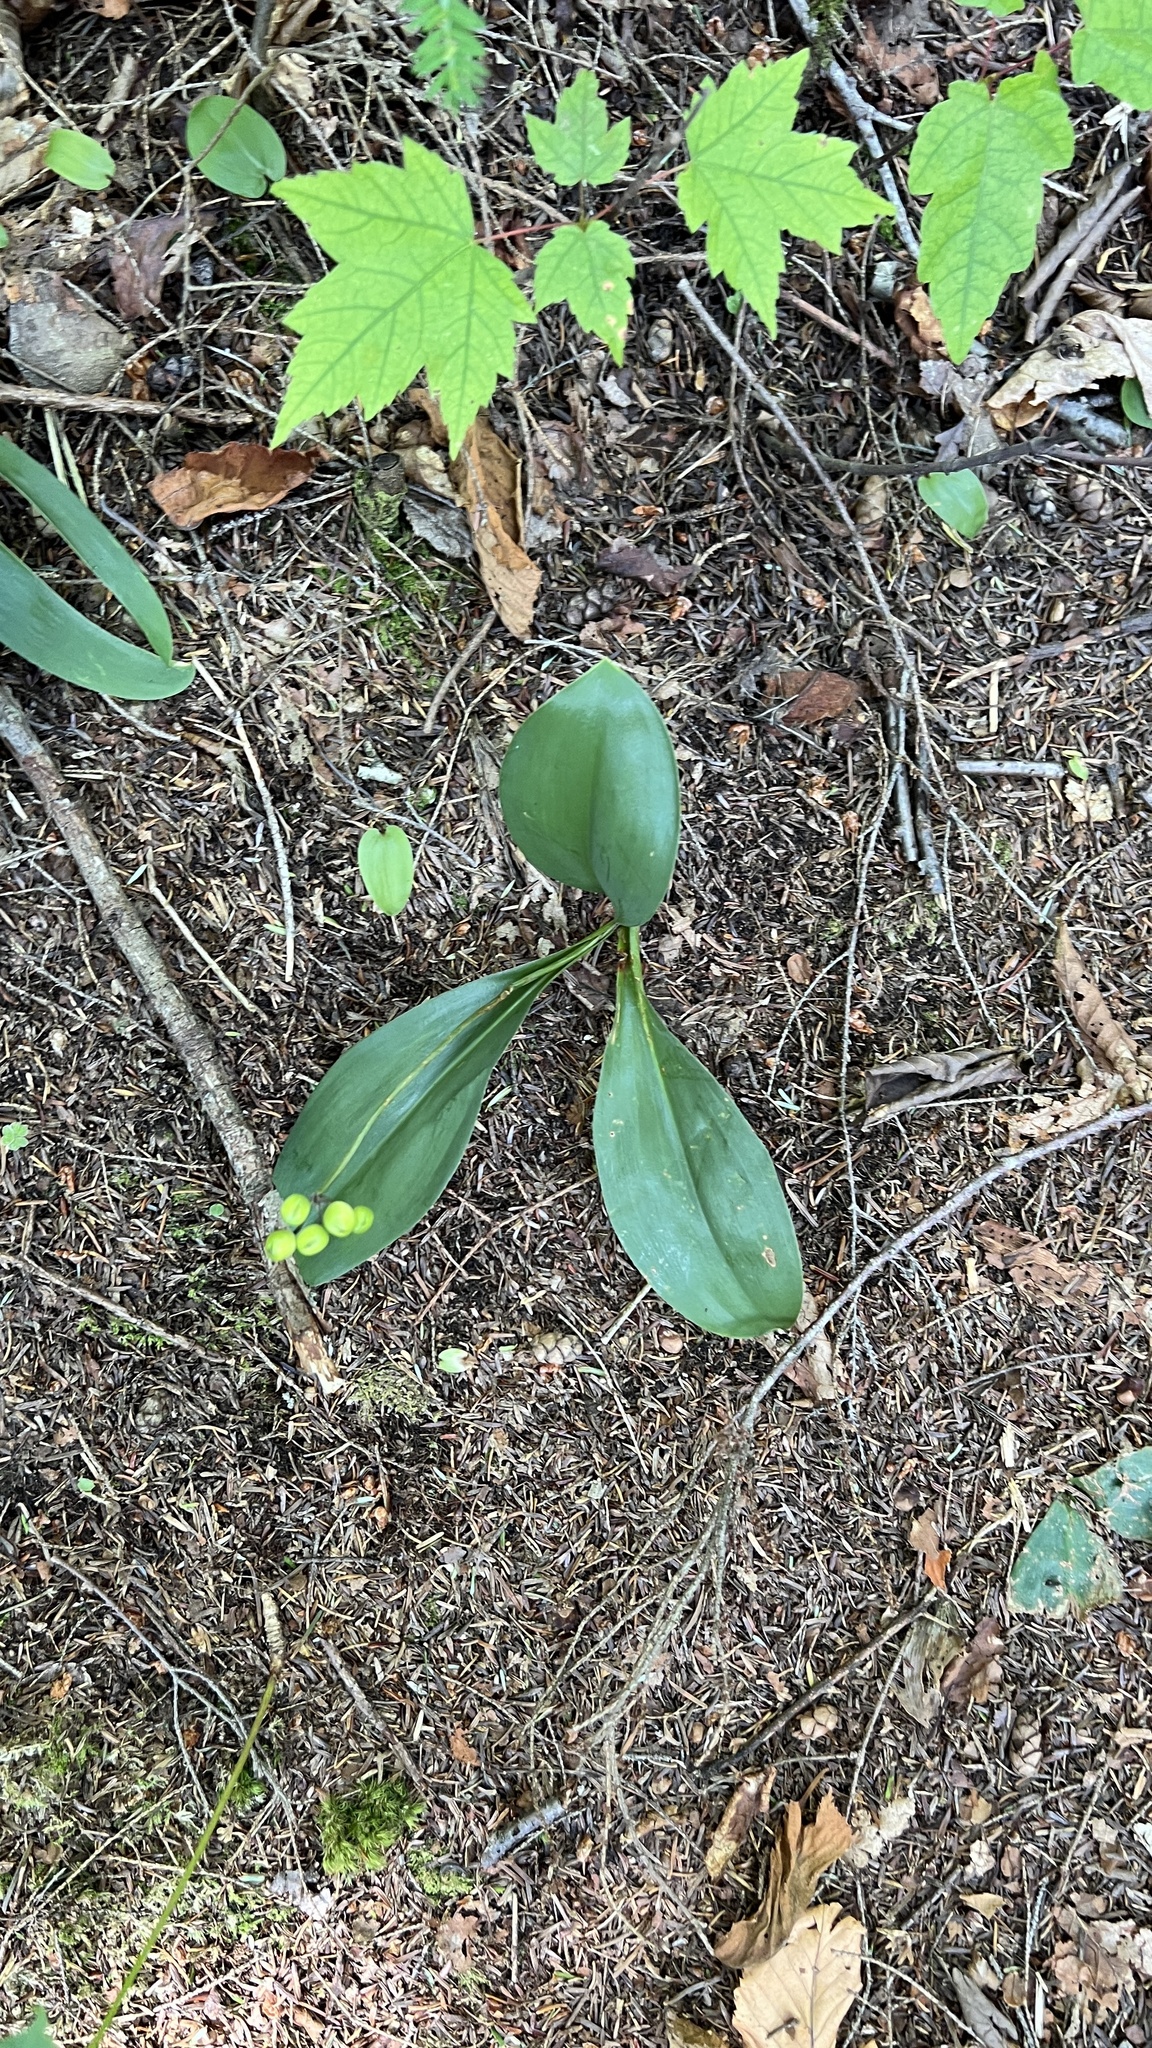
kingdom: Plantae
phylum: Tracheophyta
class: Liliopsida
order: Liliales
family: Liliaceae
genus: Clintonia
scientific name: Clintonia borealis
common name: Yellow clintonia
